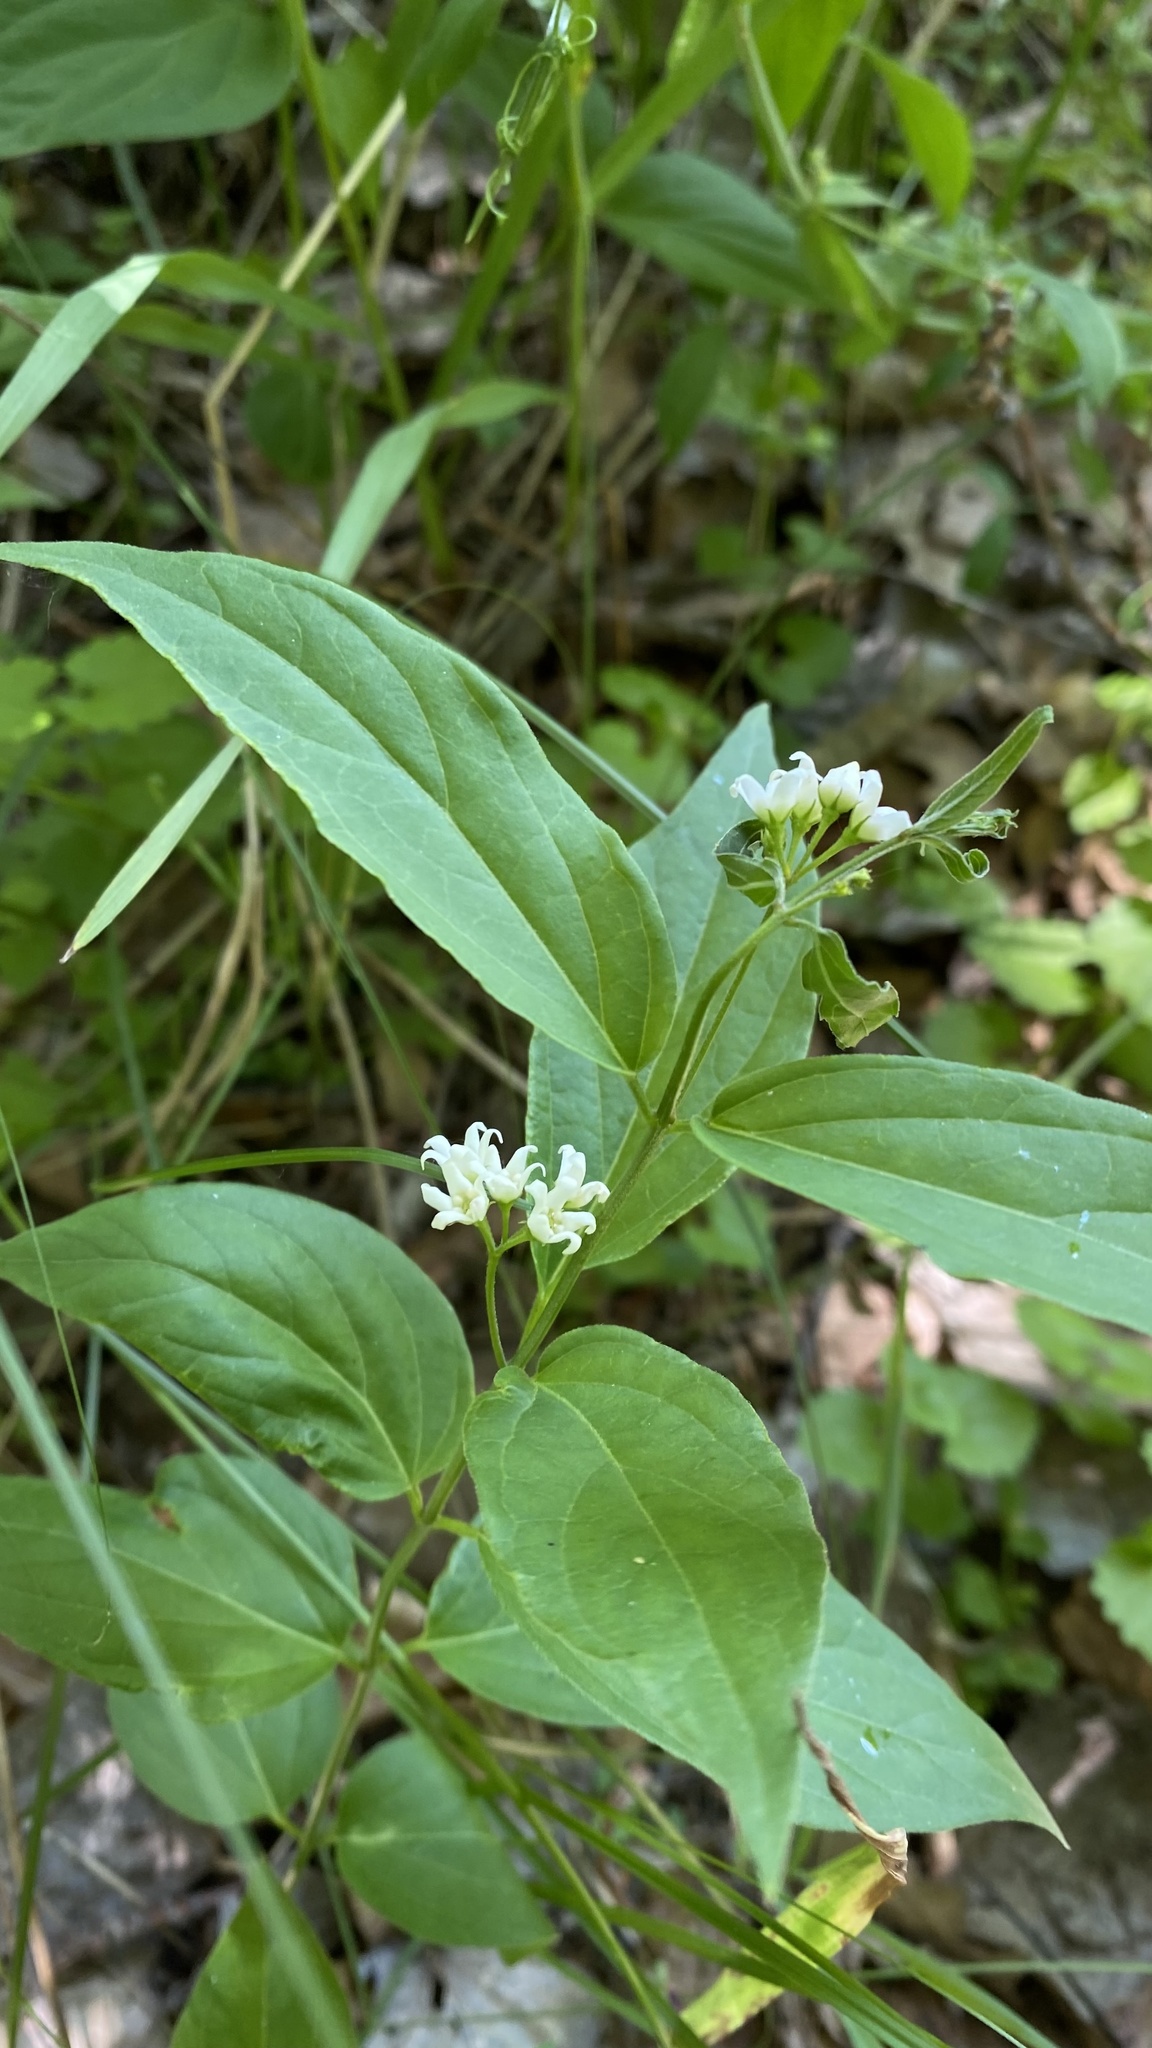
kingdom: Plantae
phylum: Tracheophyta
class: Magnoliopsida
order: Gentianales
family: Apocynaceae
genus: Vincetoxicum
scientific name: Vincetoxicum hirundinaria
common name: White swallowwort
